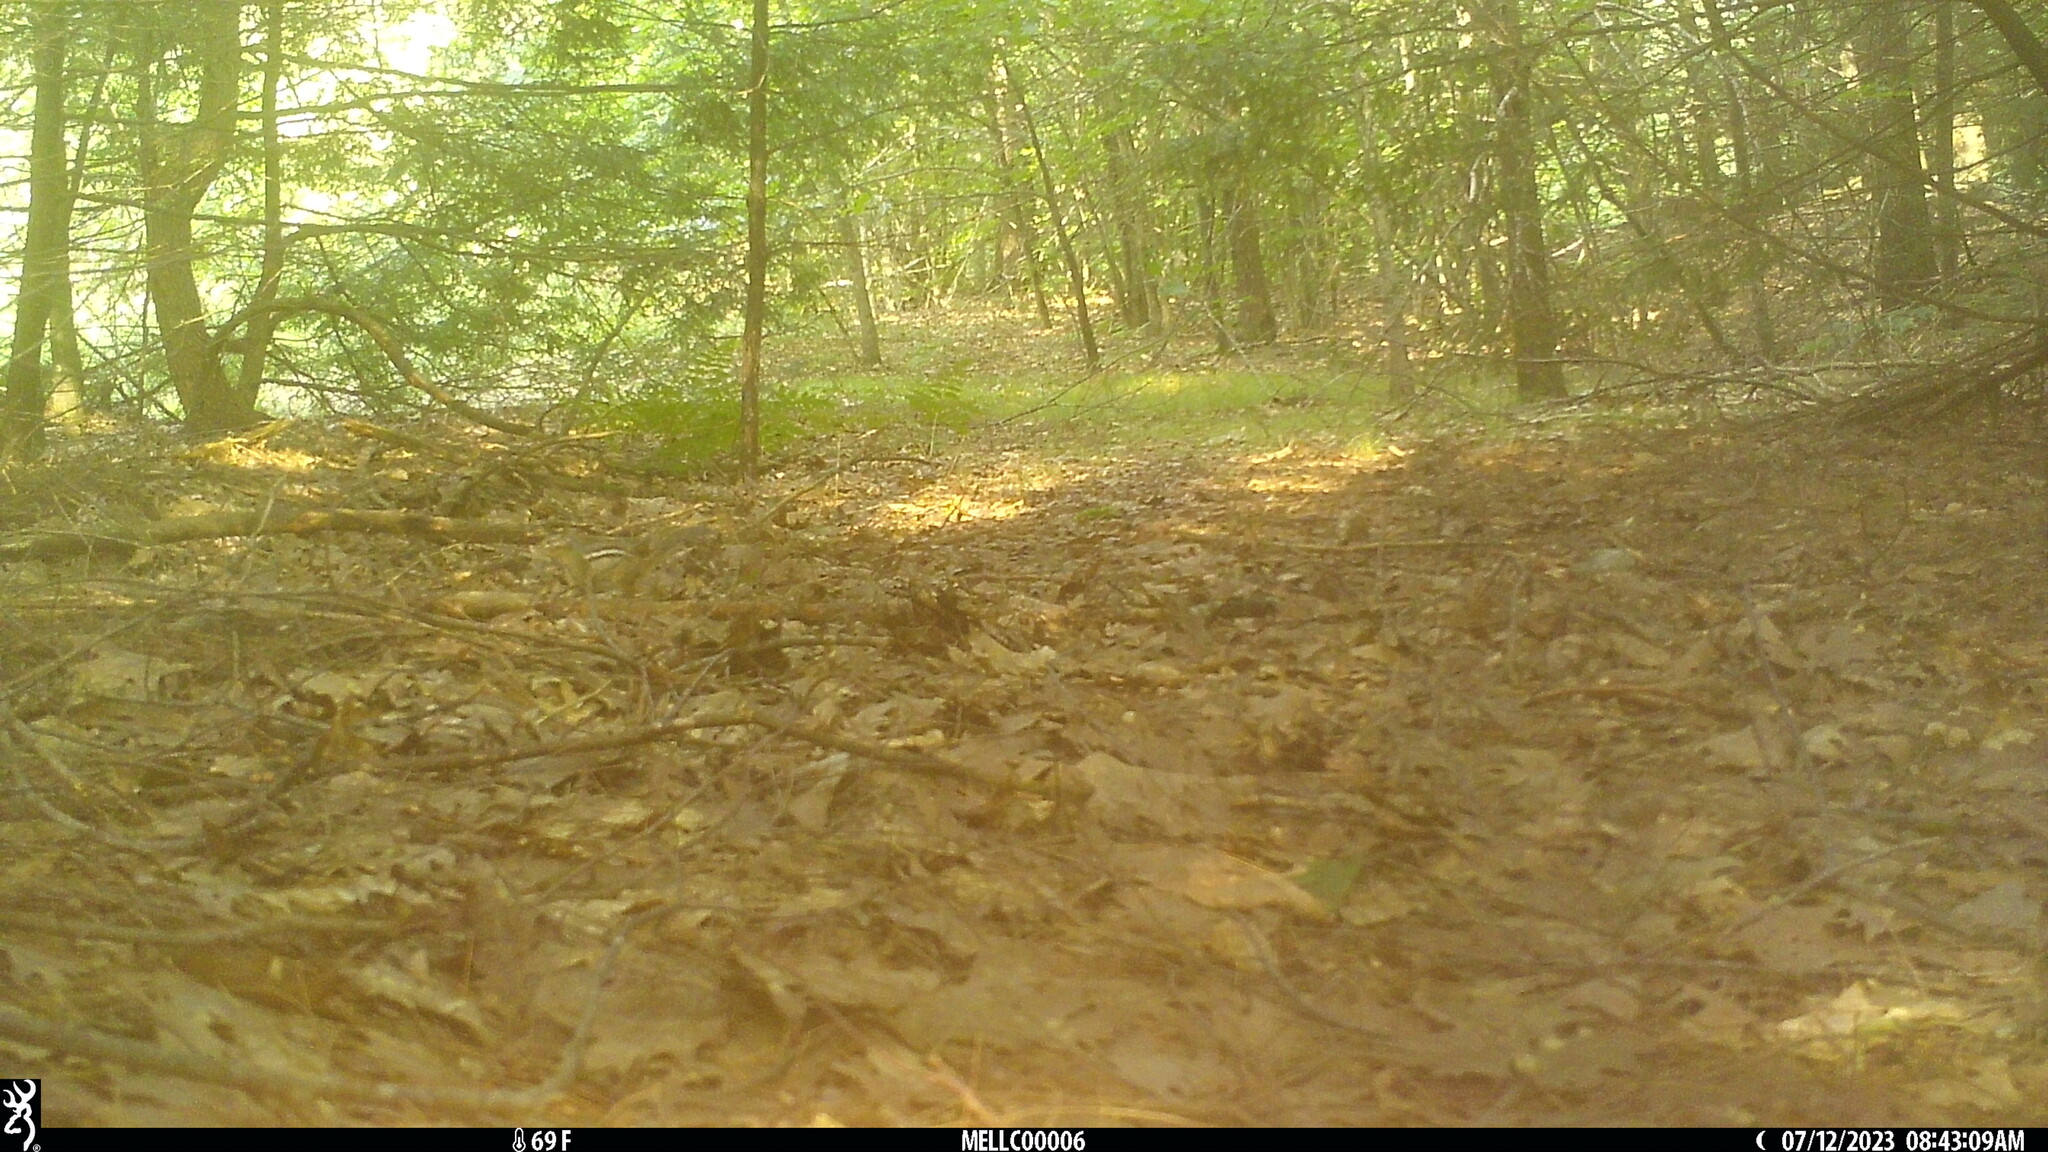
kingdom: Animalia
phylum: Chordata
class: Mammalia
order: Rodentia
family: Sciuridae
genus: Tamias
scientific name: Tamias striatus
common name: Eastern chipmunk
